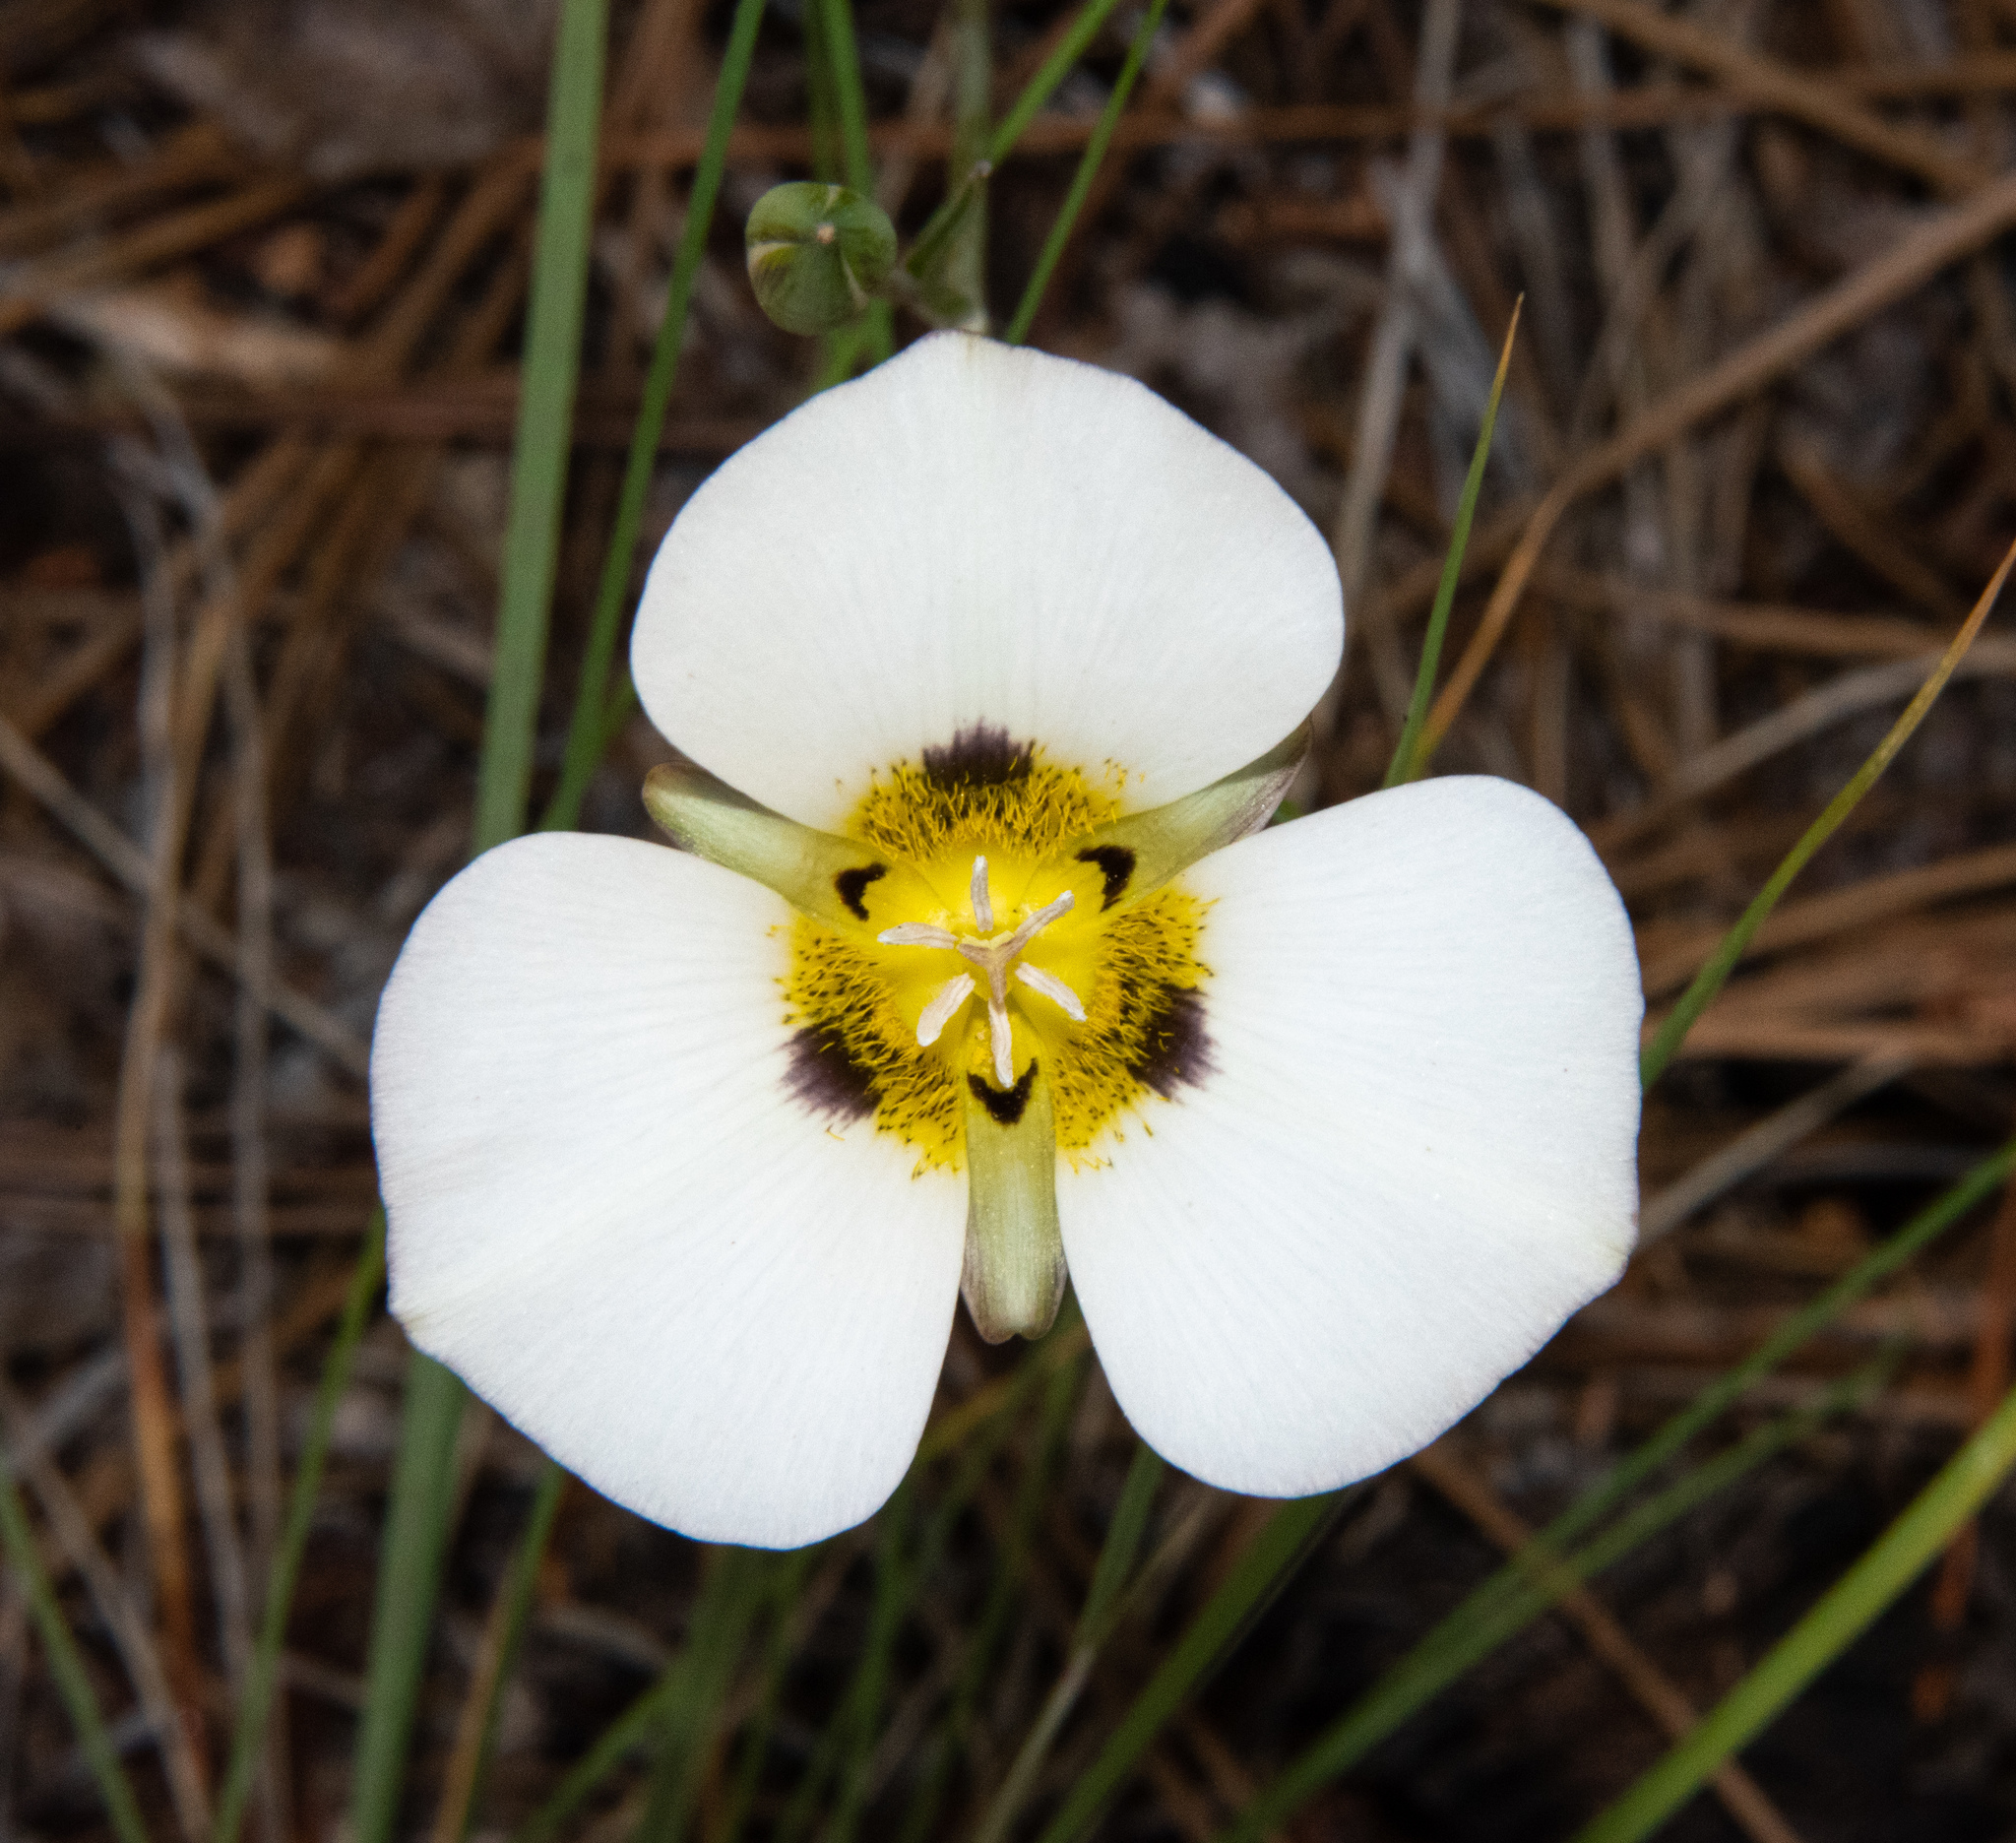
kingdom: Plantae
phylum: Tracheophyta
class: Liliopsida
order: Liliales
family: Liliaceae
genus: Calochortus
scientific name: Calochortus leichtlinii
